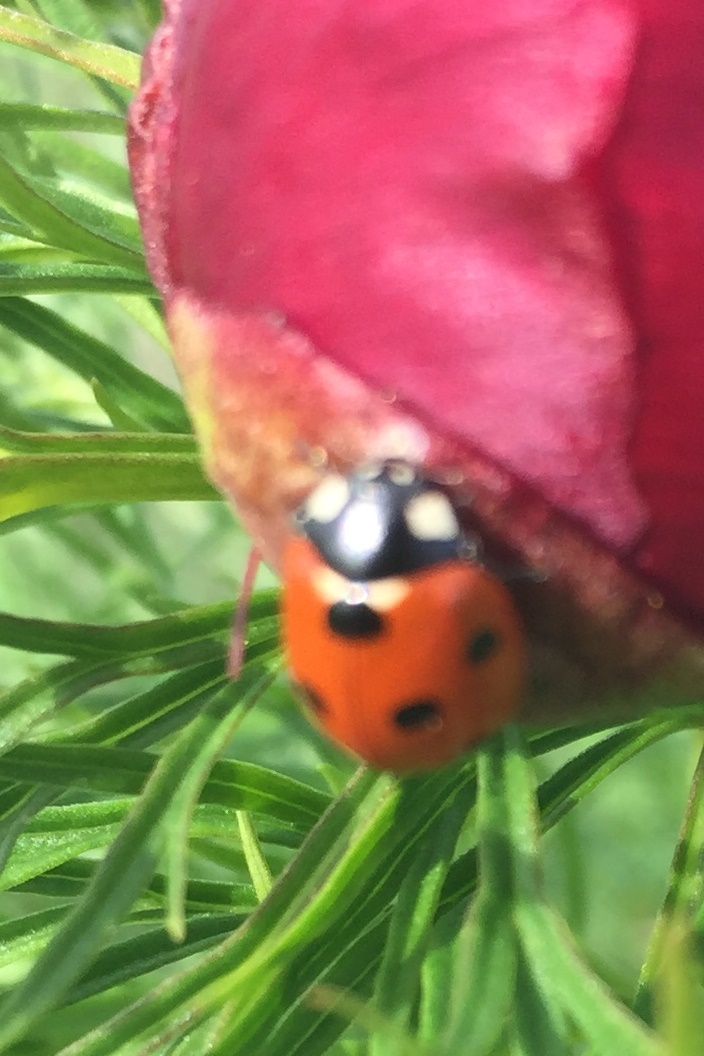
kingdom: Animalia
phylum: Arthropoda
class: Insecta
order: Coleoptera
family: Coccinellidae
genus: Coccinella
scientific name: Coccinella septempunctata
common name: Sevenspotted lady beetle
